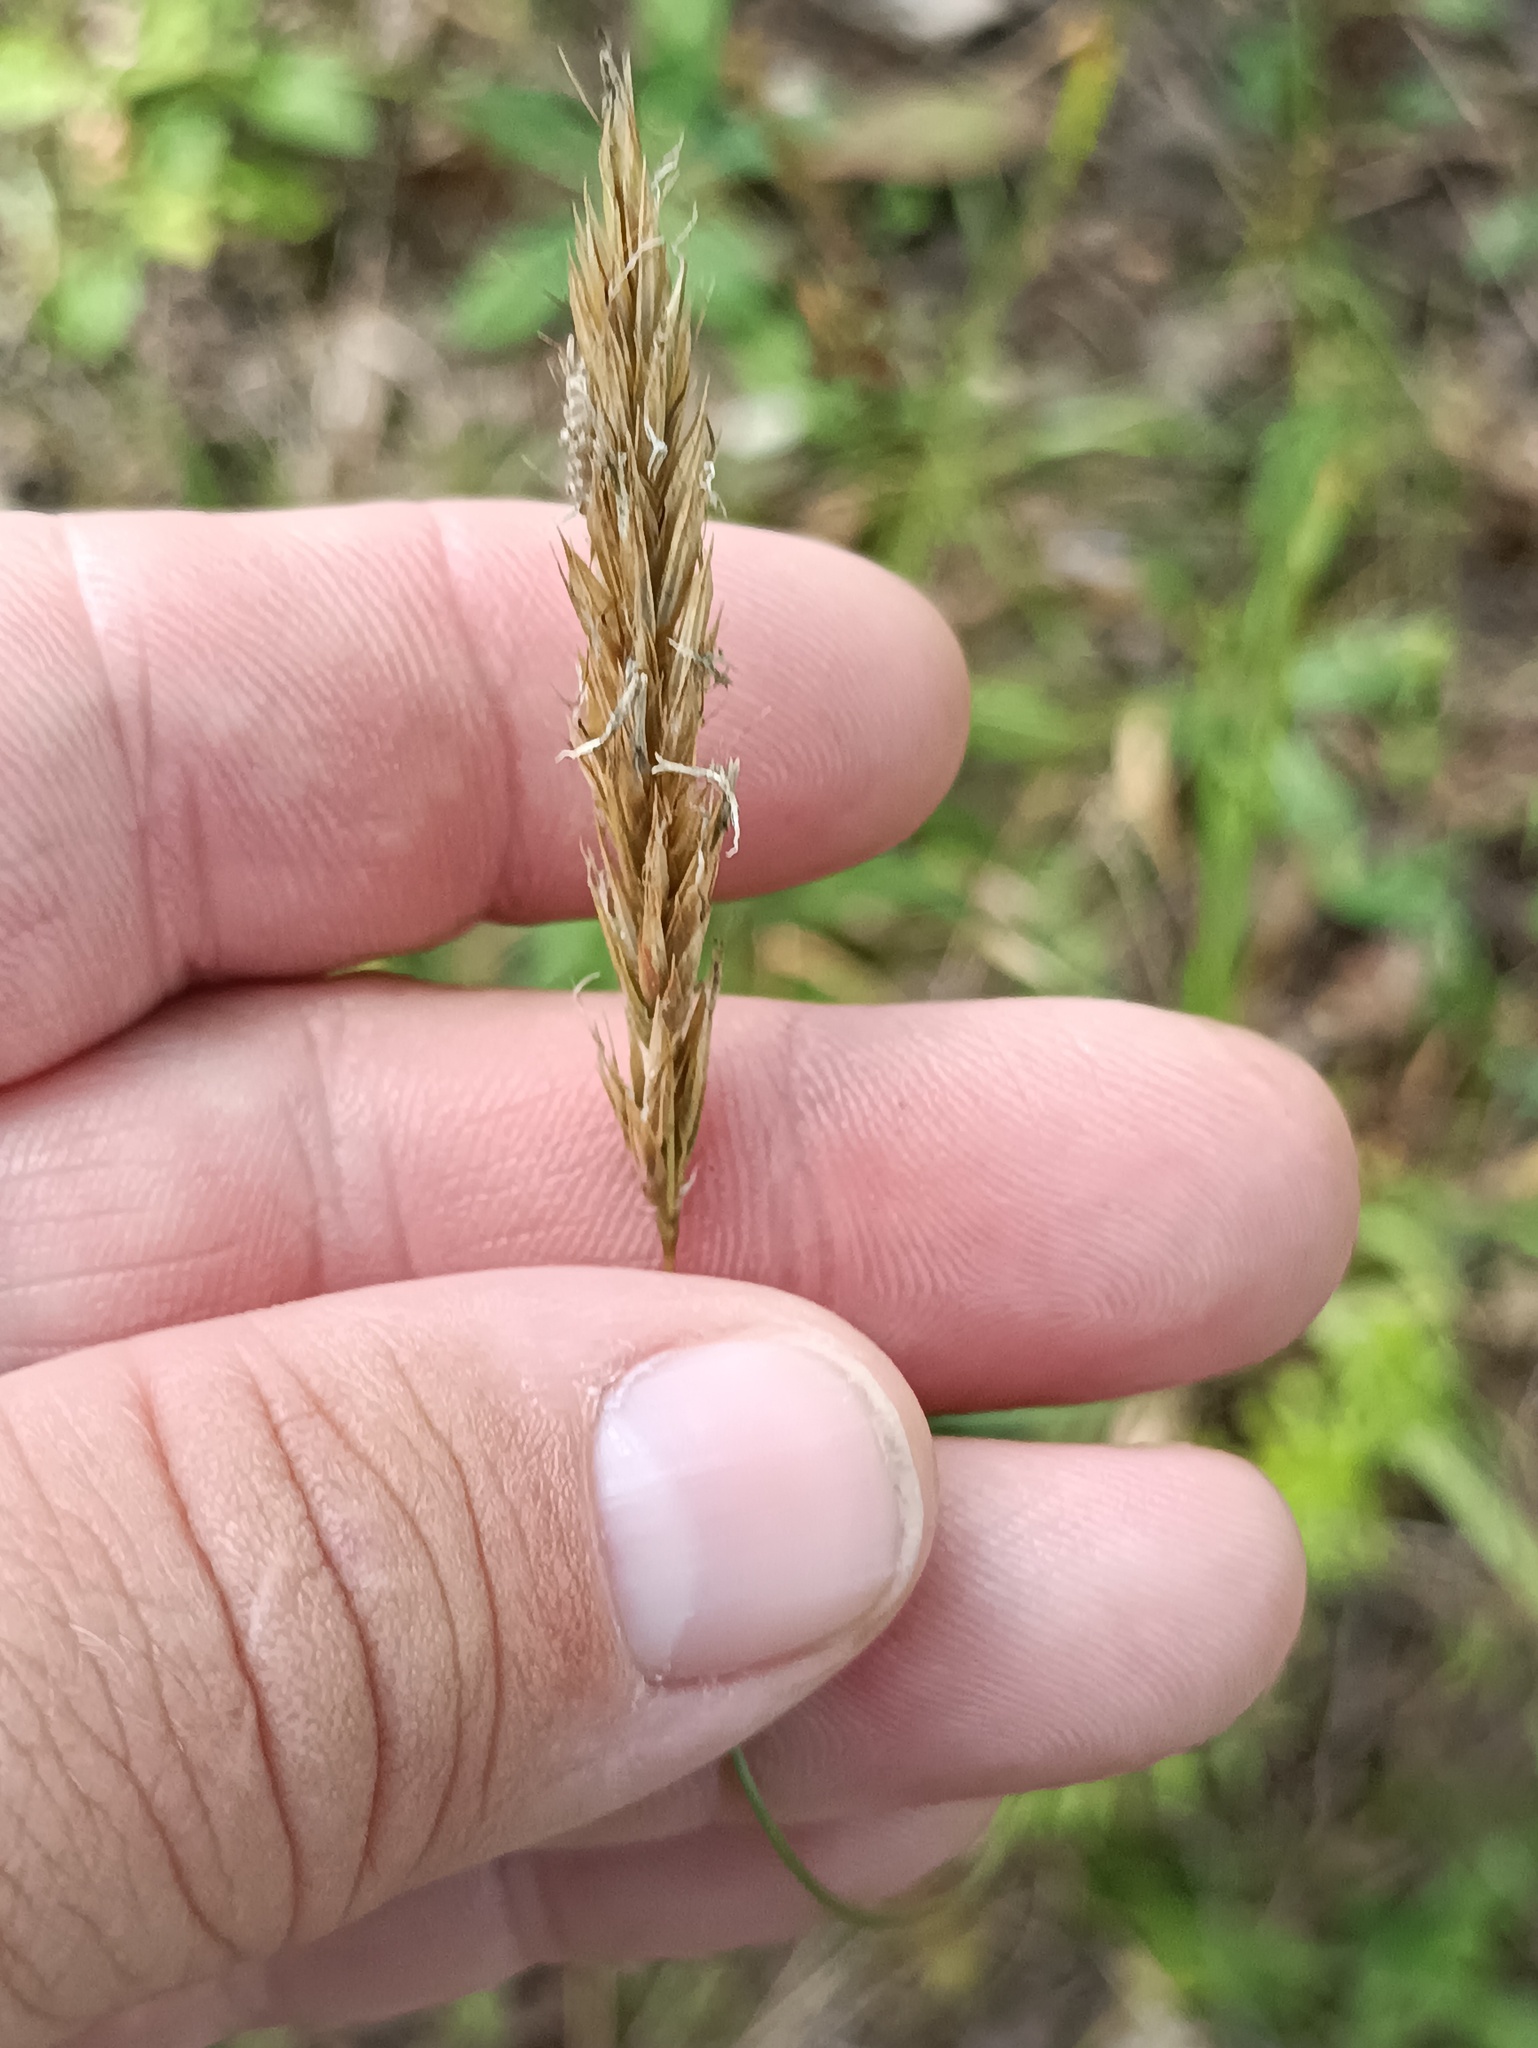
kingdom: Plantae
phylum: Tracheophyta
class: Liliopsida
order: Poales
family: Poaceae
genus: Anthoxanthum
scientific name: Anthoxanthum odoratum
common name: Sweet vernalgrass
